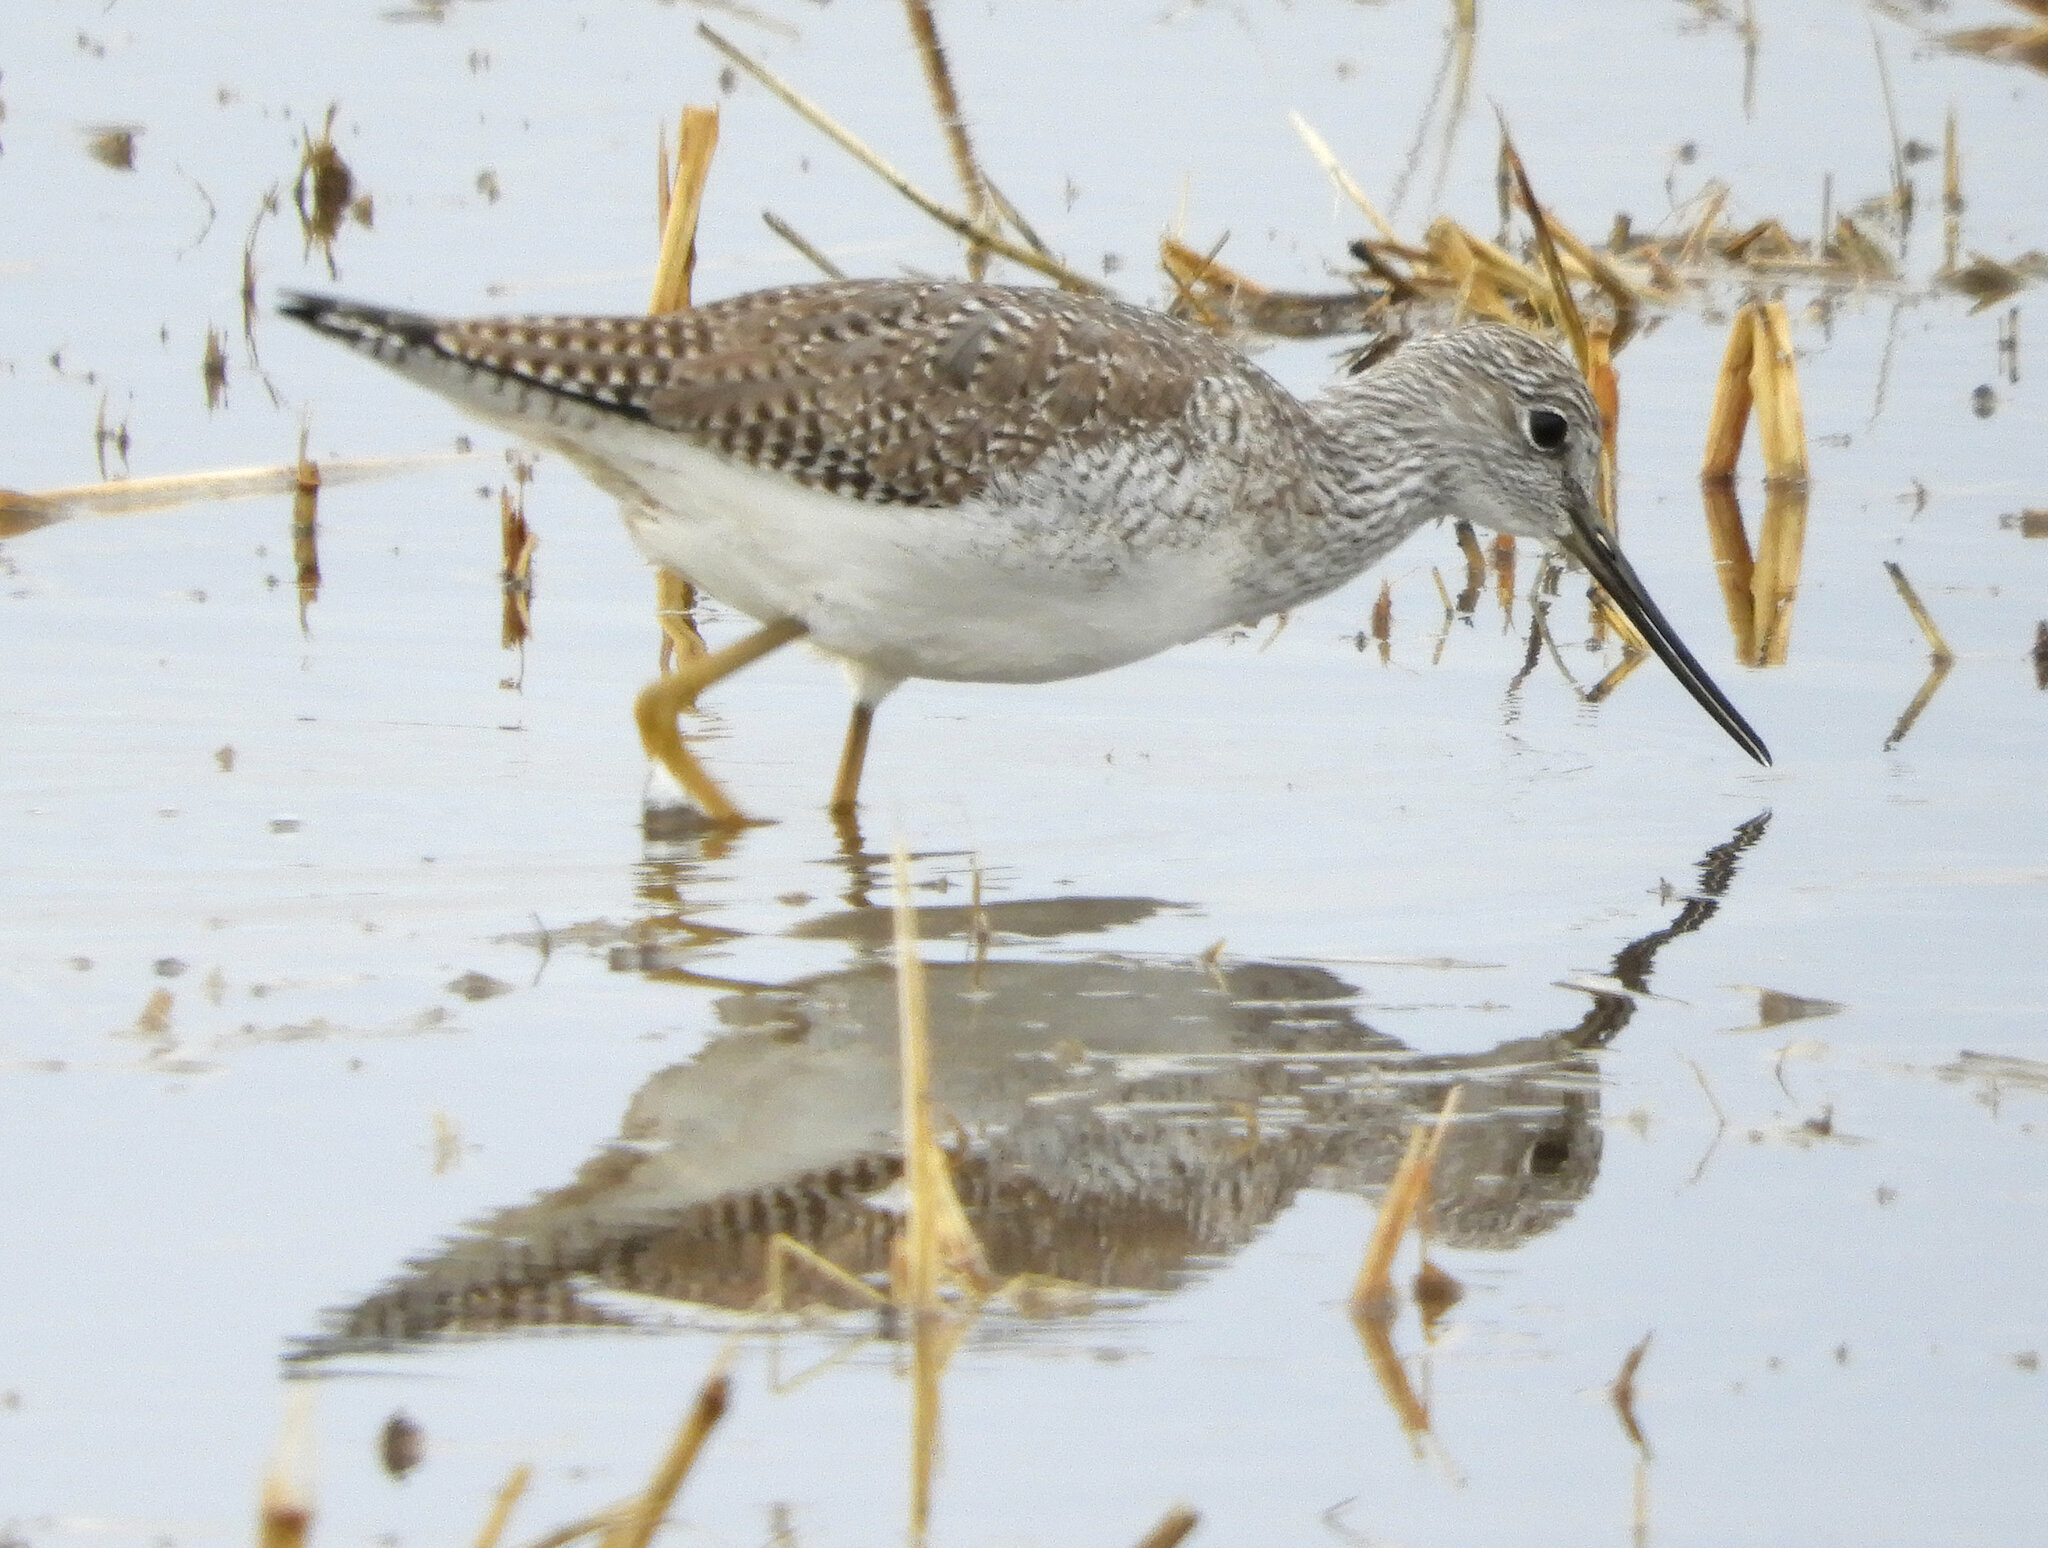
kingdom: Animalia
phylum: Chordata
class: Aves
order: Charadriiformes
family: Scolopacidae
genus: Tringa
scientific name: Tringa melanoleuca
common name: Greater yellowlegs
